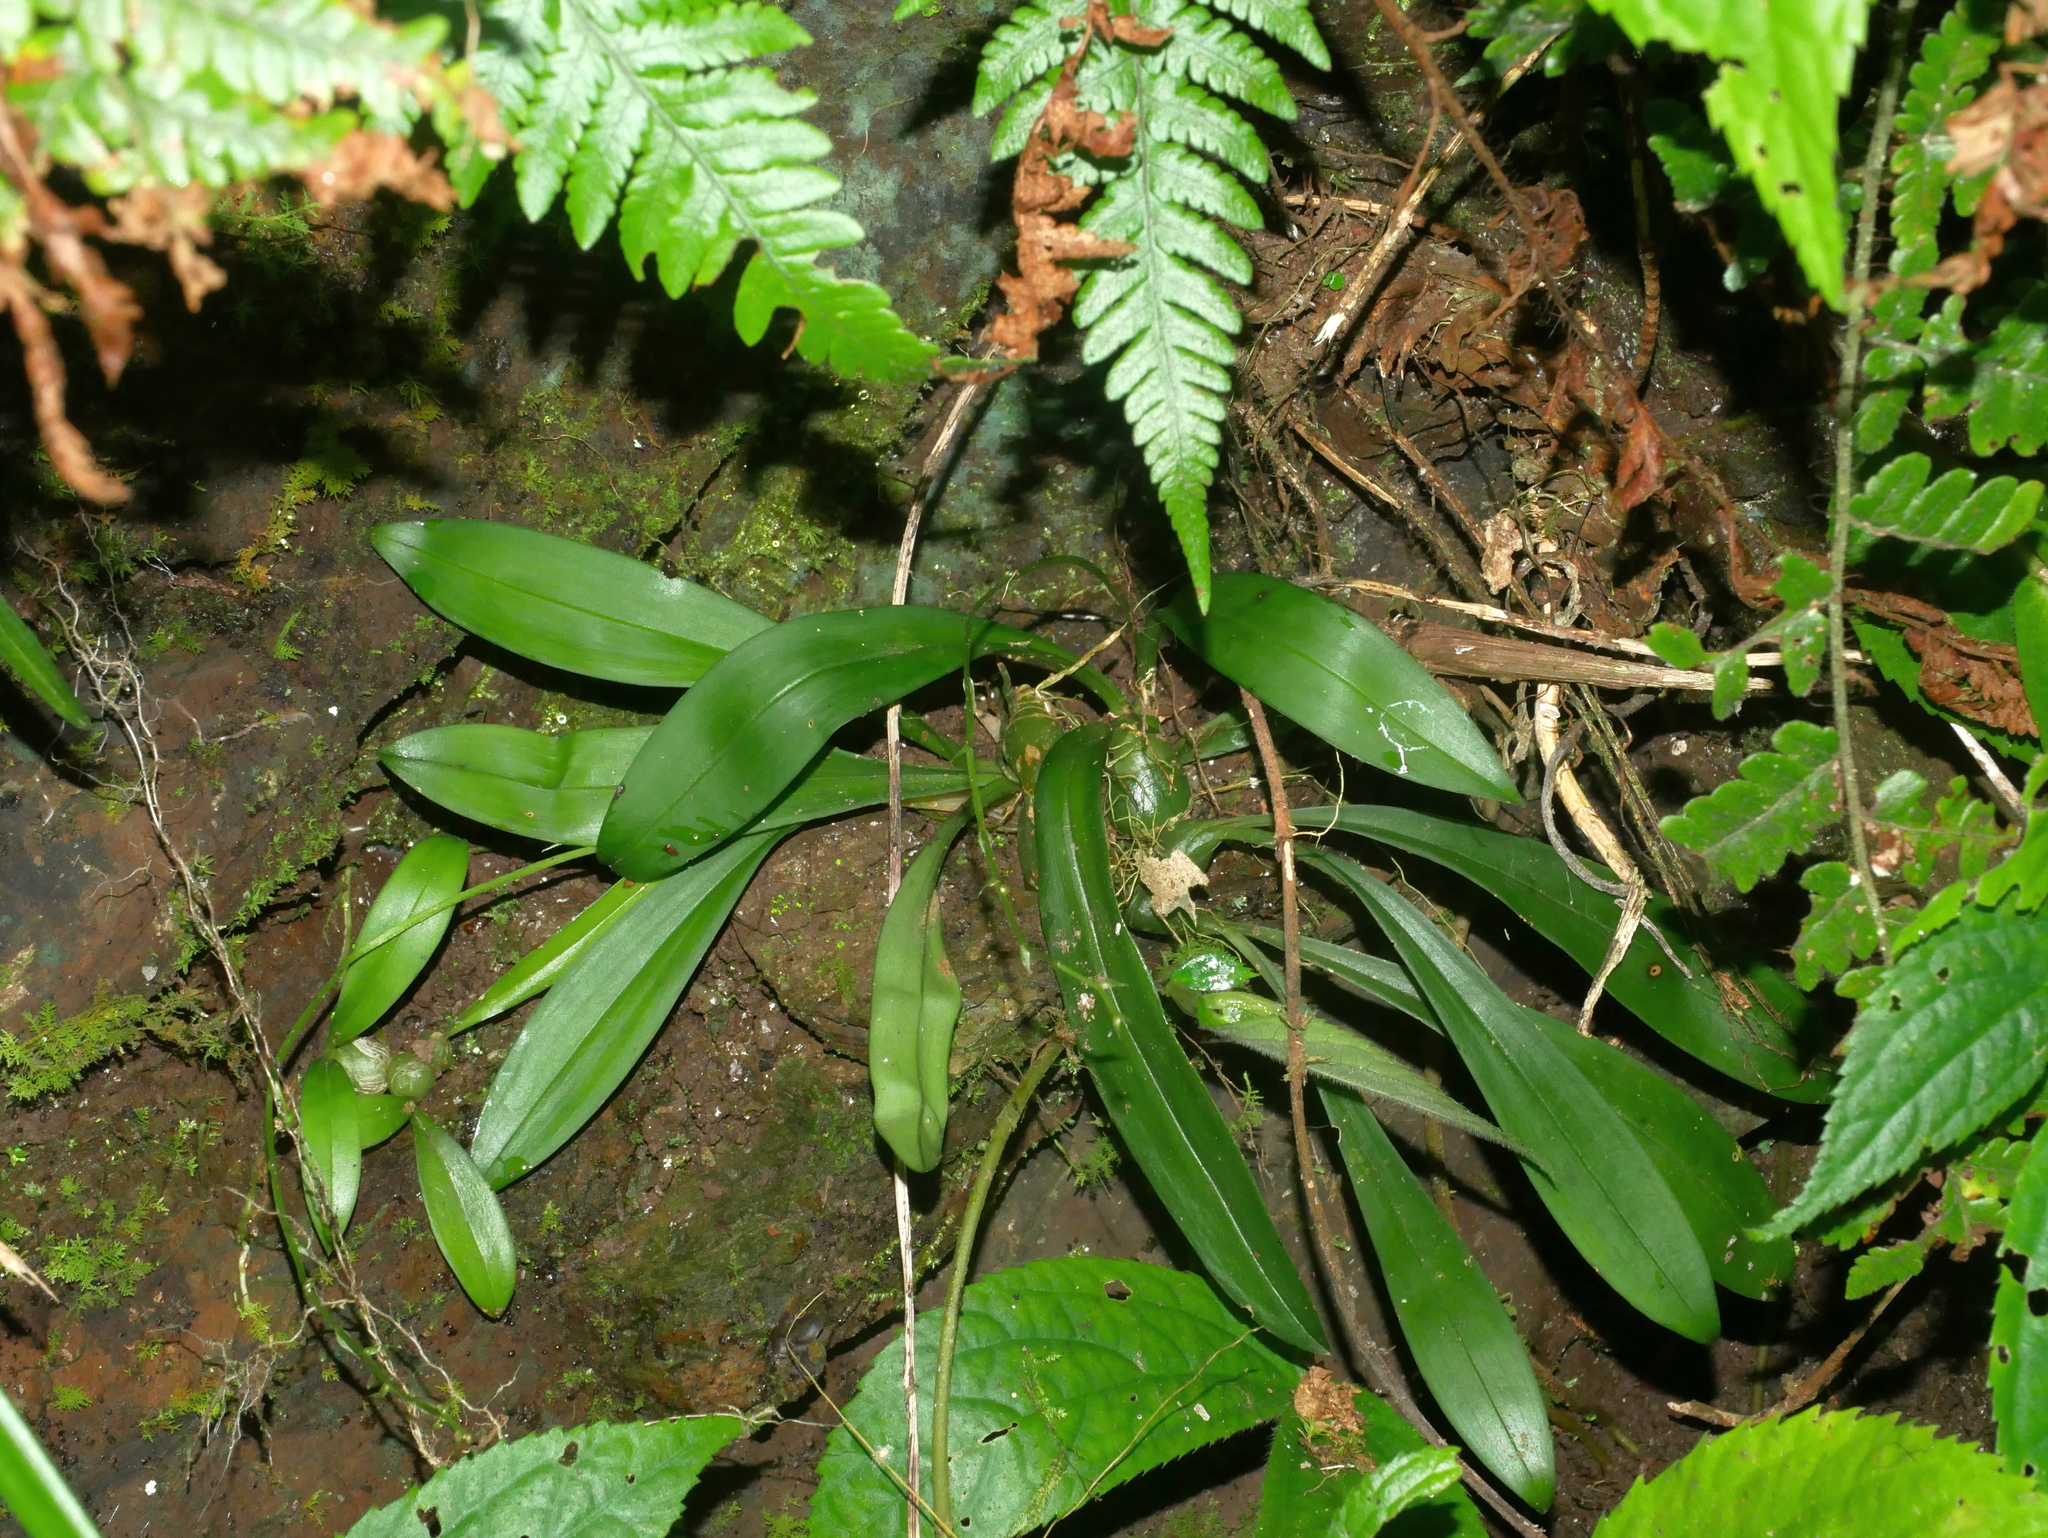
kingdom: Plantae
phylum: Tracheophyta
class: Liliopsida
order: Asparagales
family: Orchidaceae
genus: Liparis
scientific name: Liparis nakaharae
